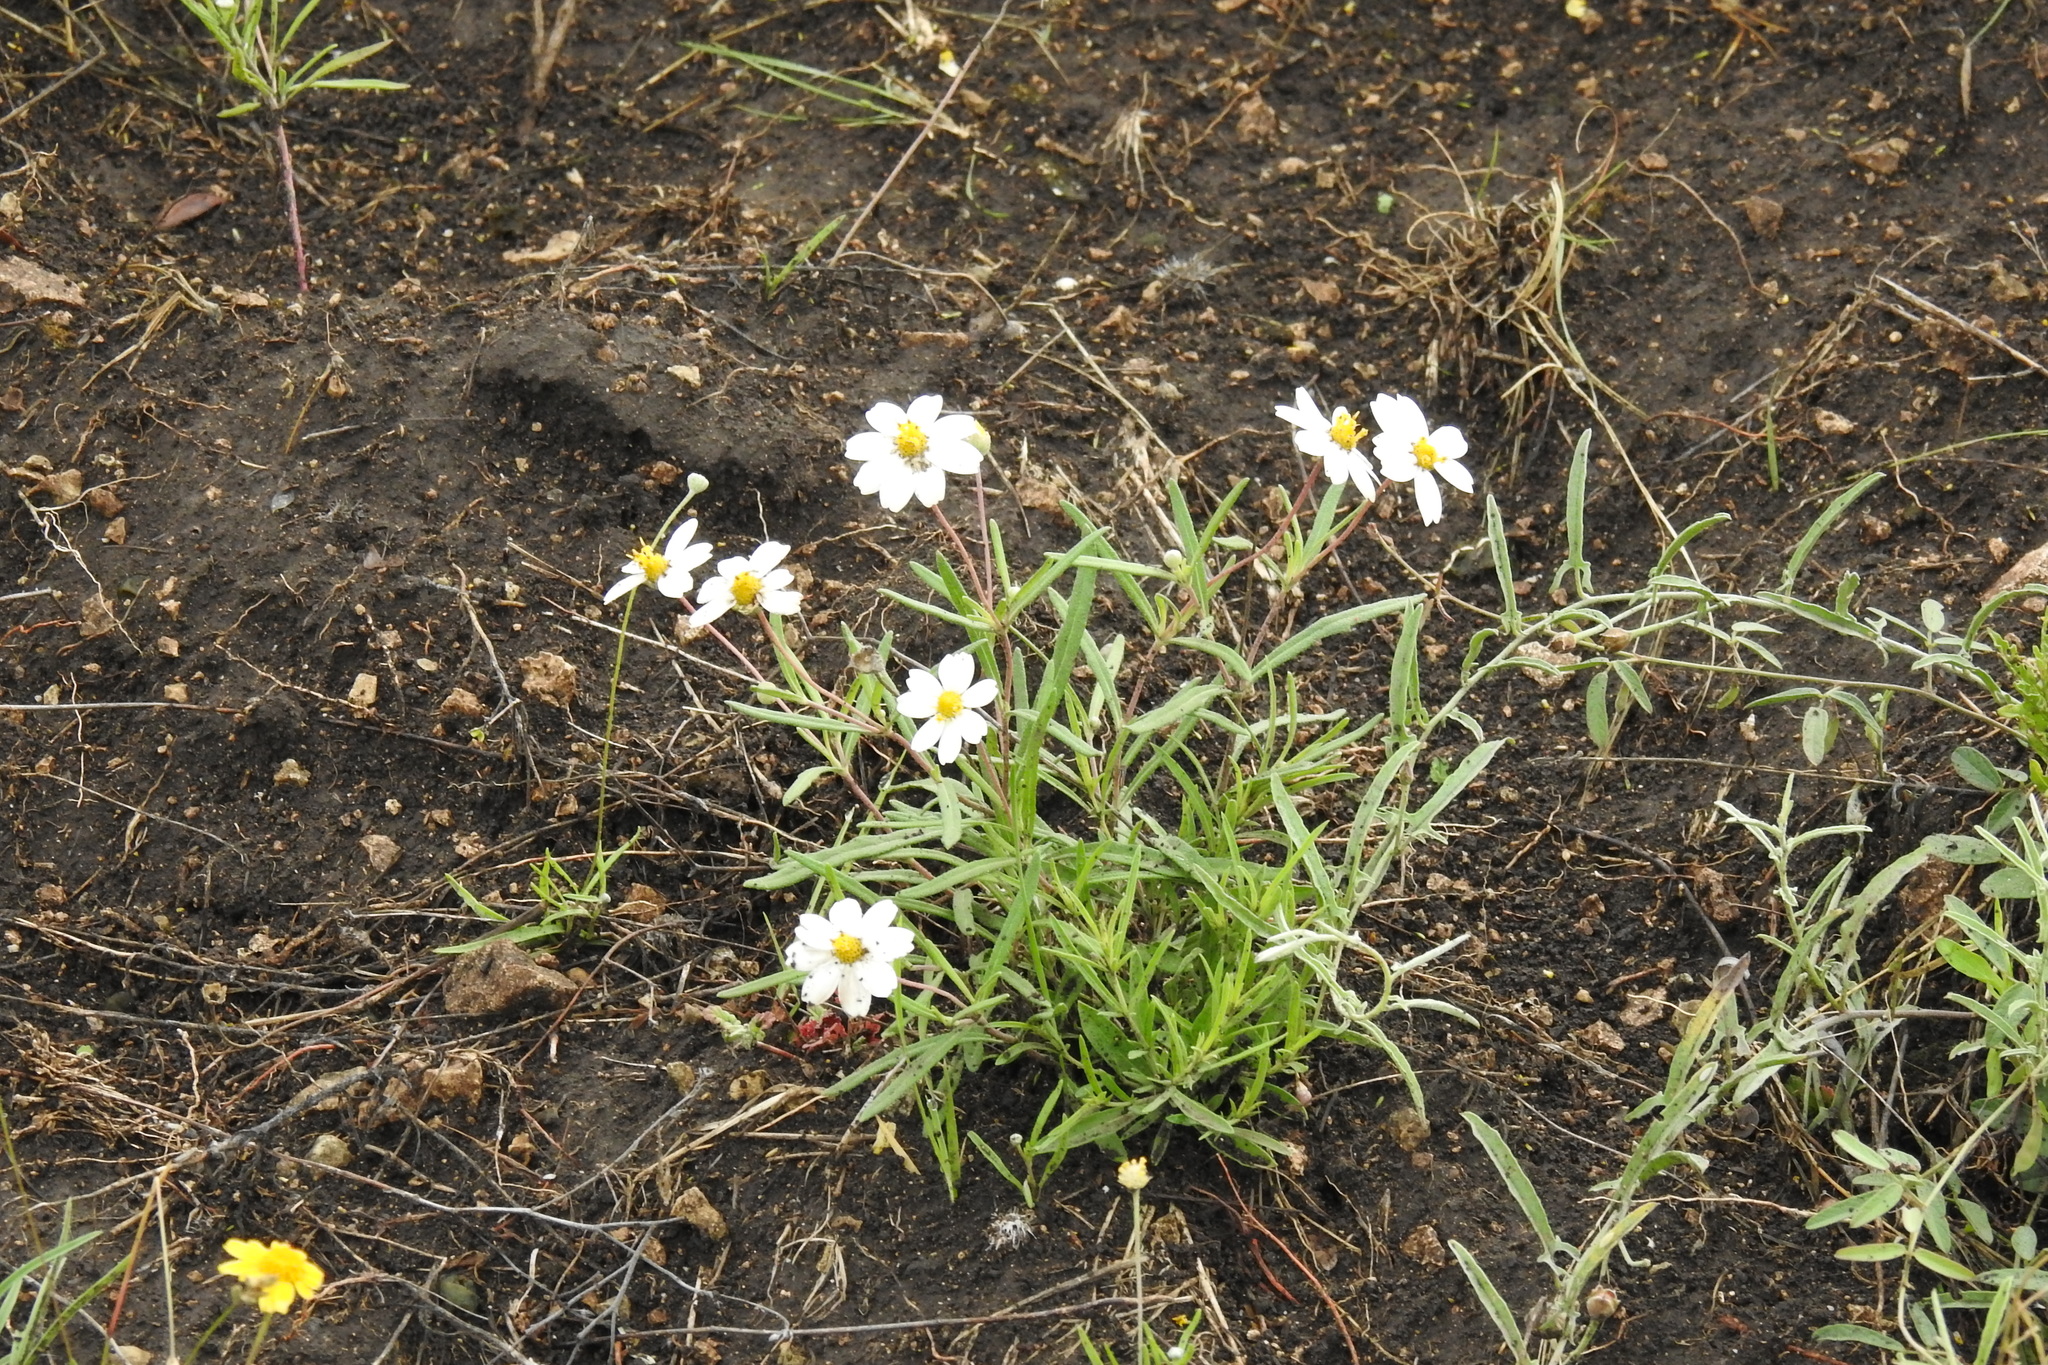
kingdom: Plantae
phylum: Tracheophyta
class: Magnoliopsida
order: Asterales
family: Asteraceae
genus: Melampodium
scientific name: Melampodium leucanthum
